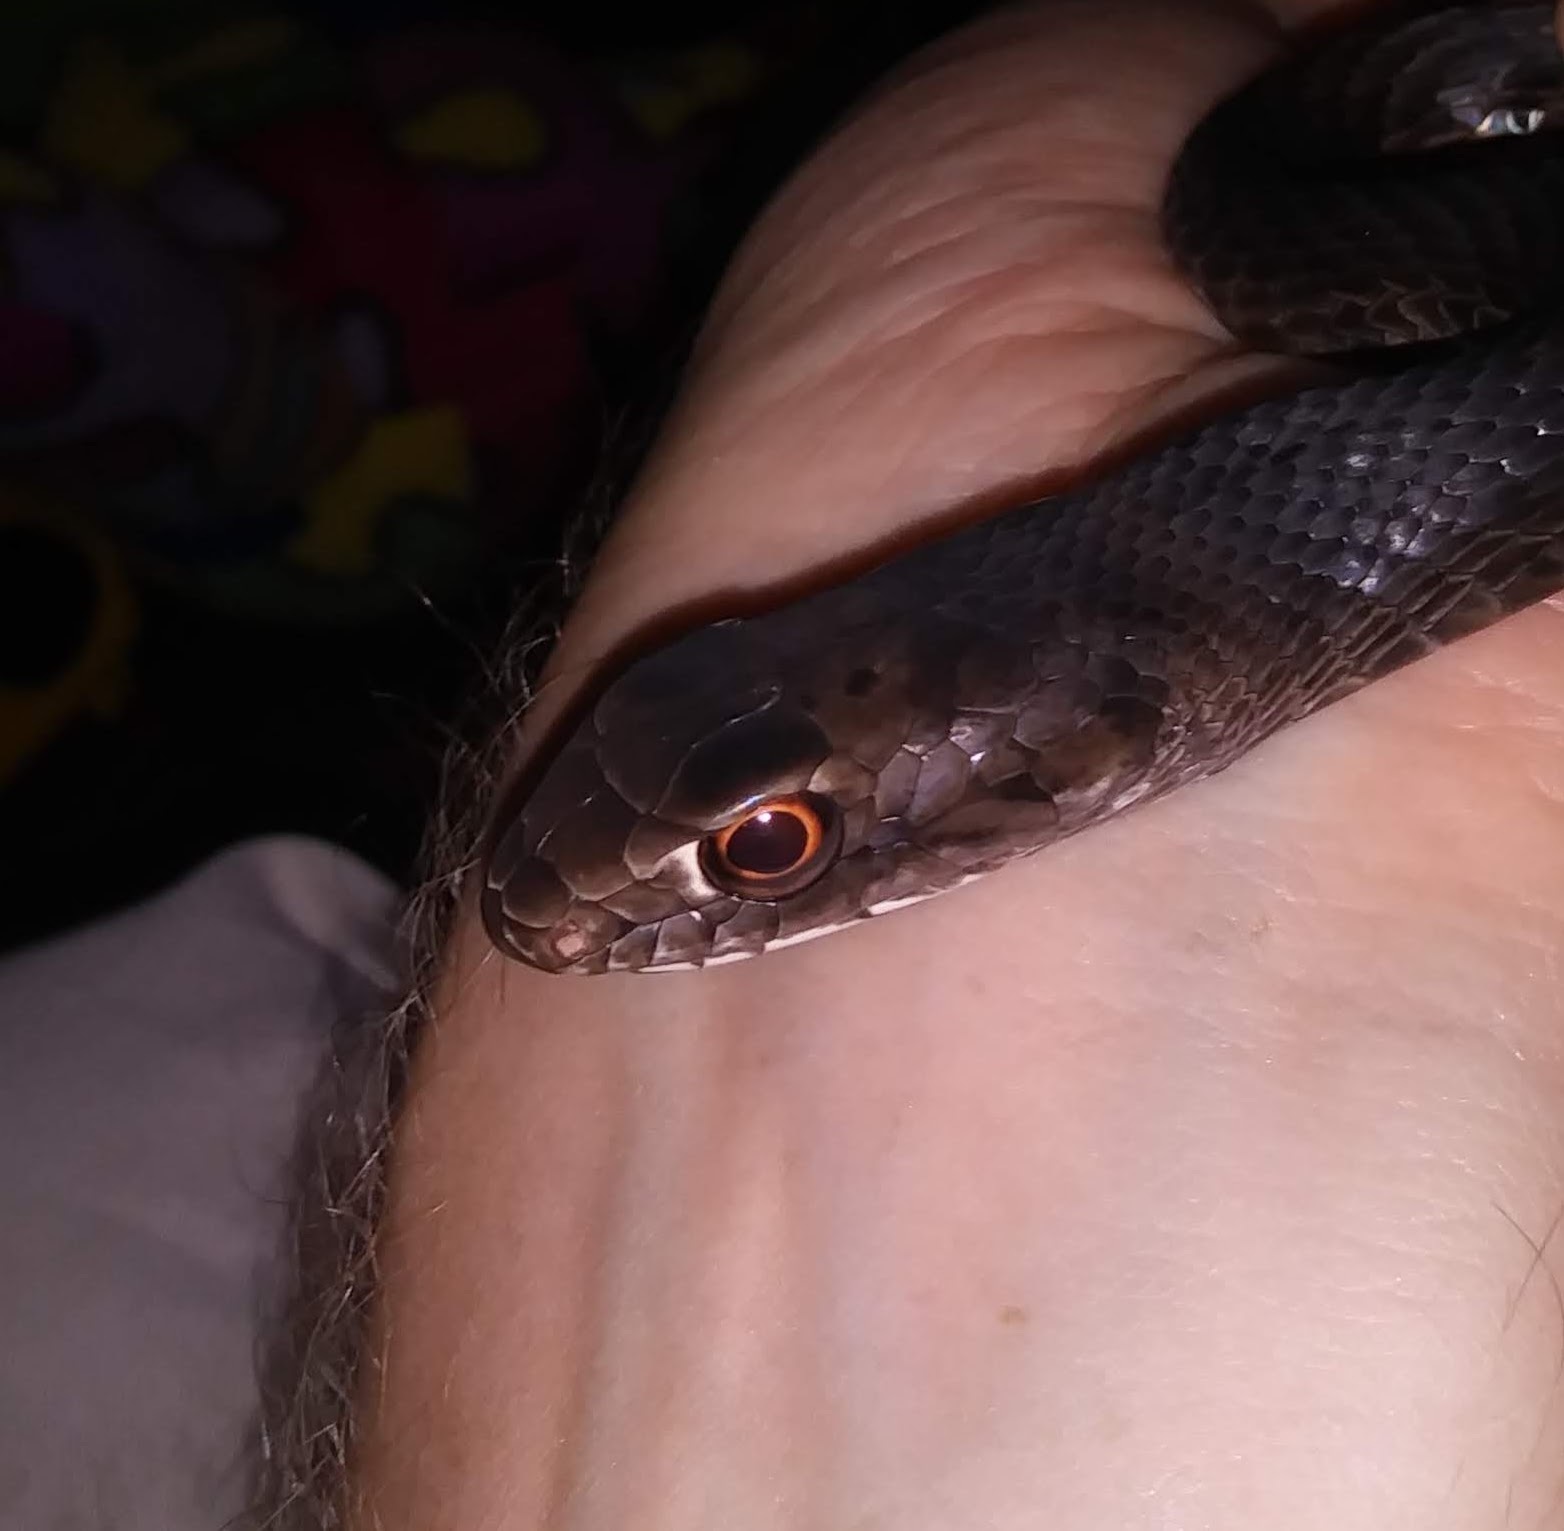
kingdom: Animalia
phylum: Chordata
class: Squamata
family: Colubridae
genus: Masticophis
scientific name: Masticophis flagellum
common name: Coachwhip
